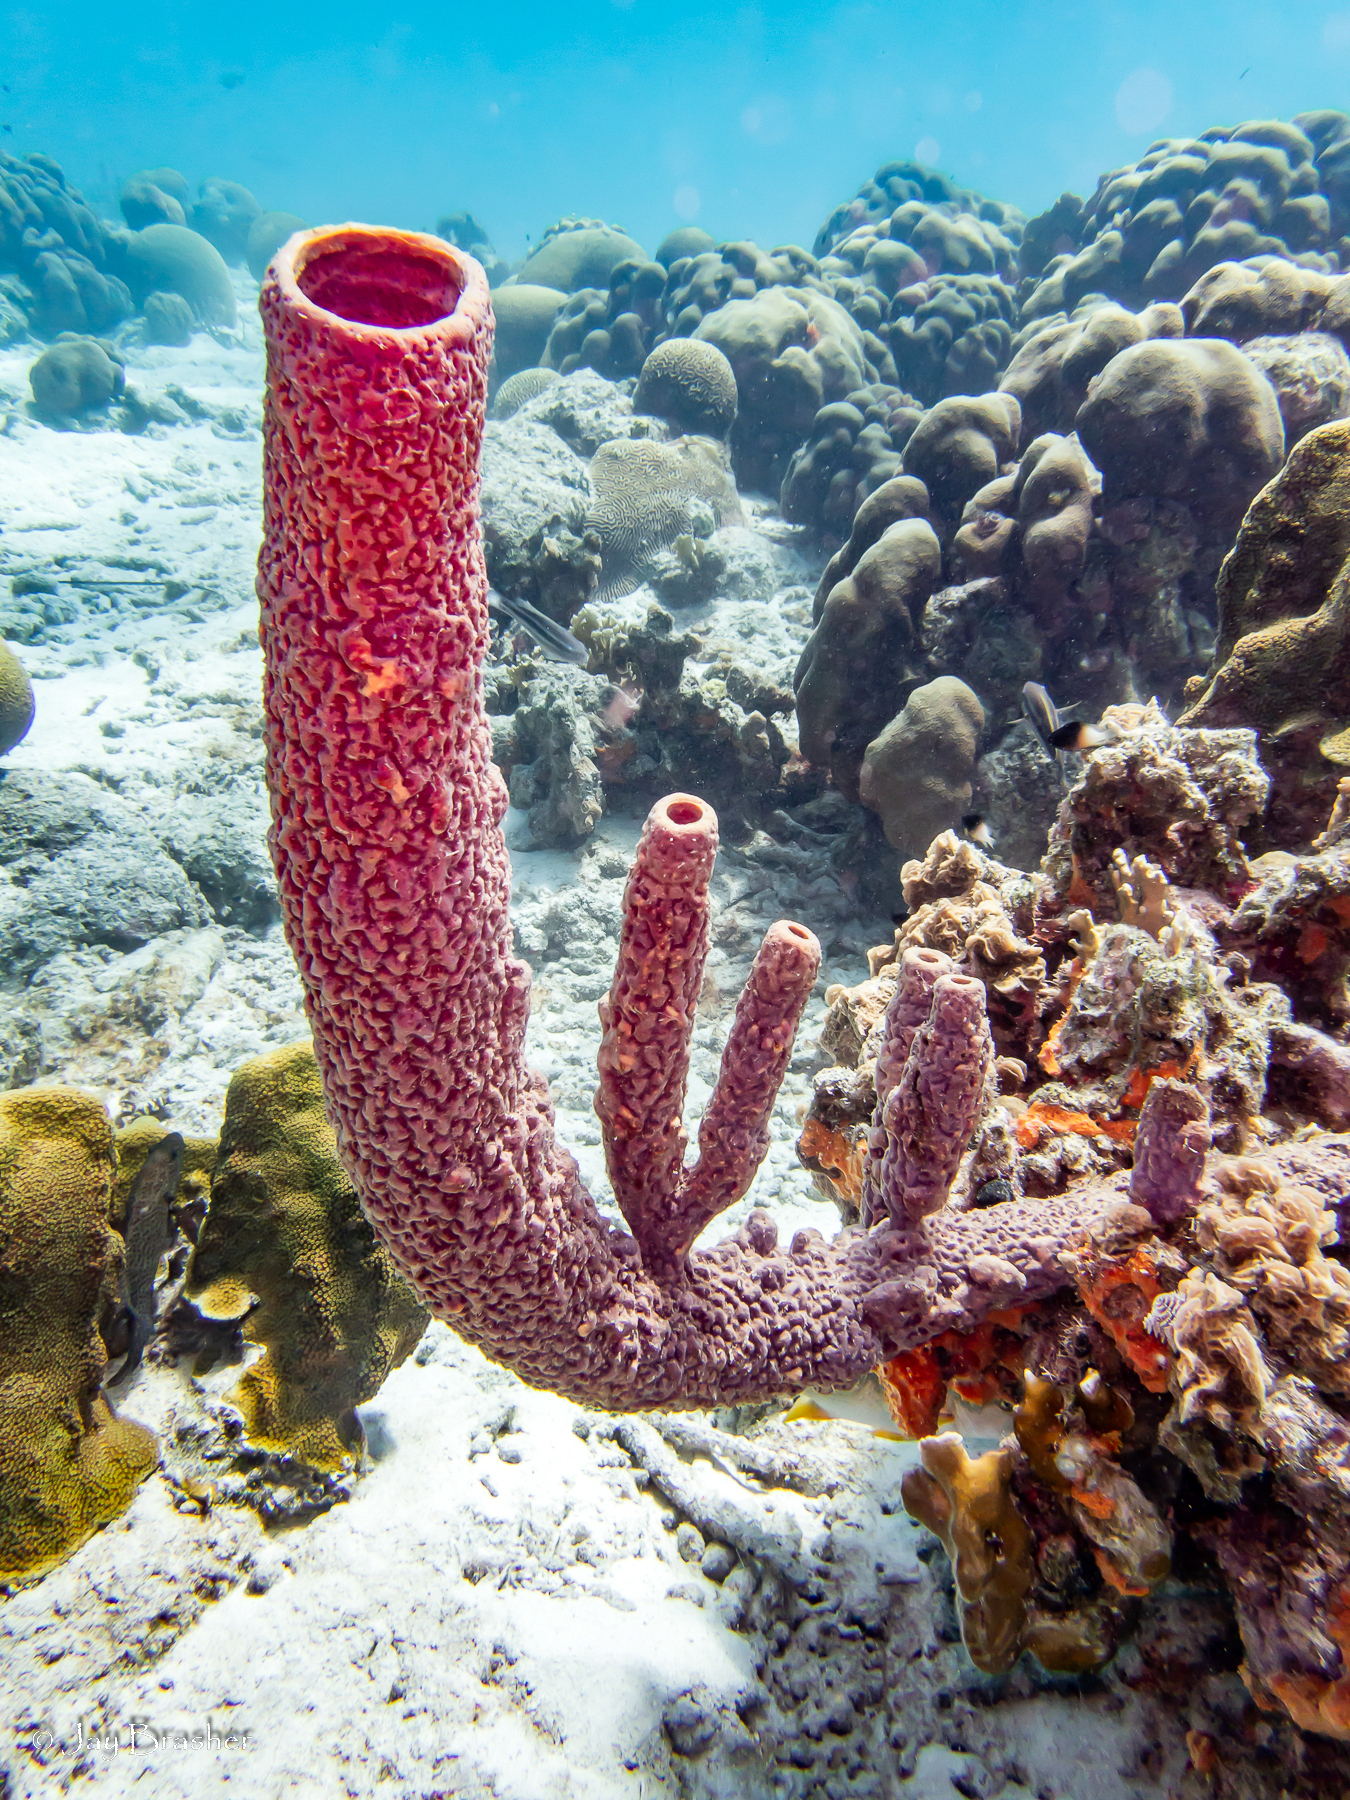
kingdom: Animalia
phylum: Porifera
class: Demospongiae
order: Verongiida
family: Aplysinidae
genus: Aplysina
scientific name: Aplysina archeri
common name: Stove-pipe sponge
